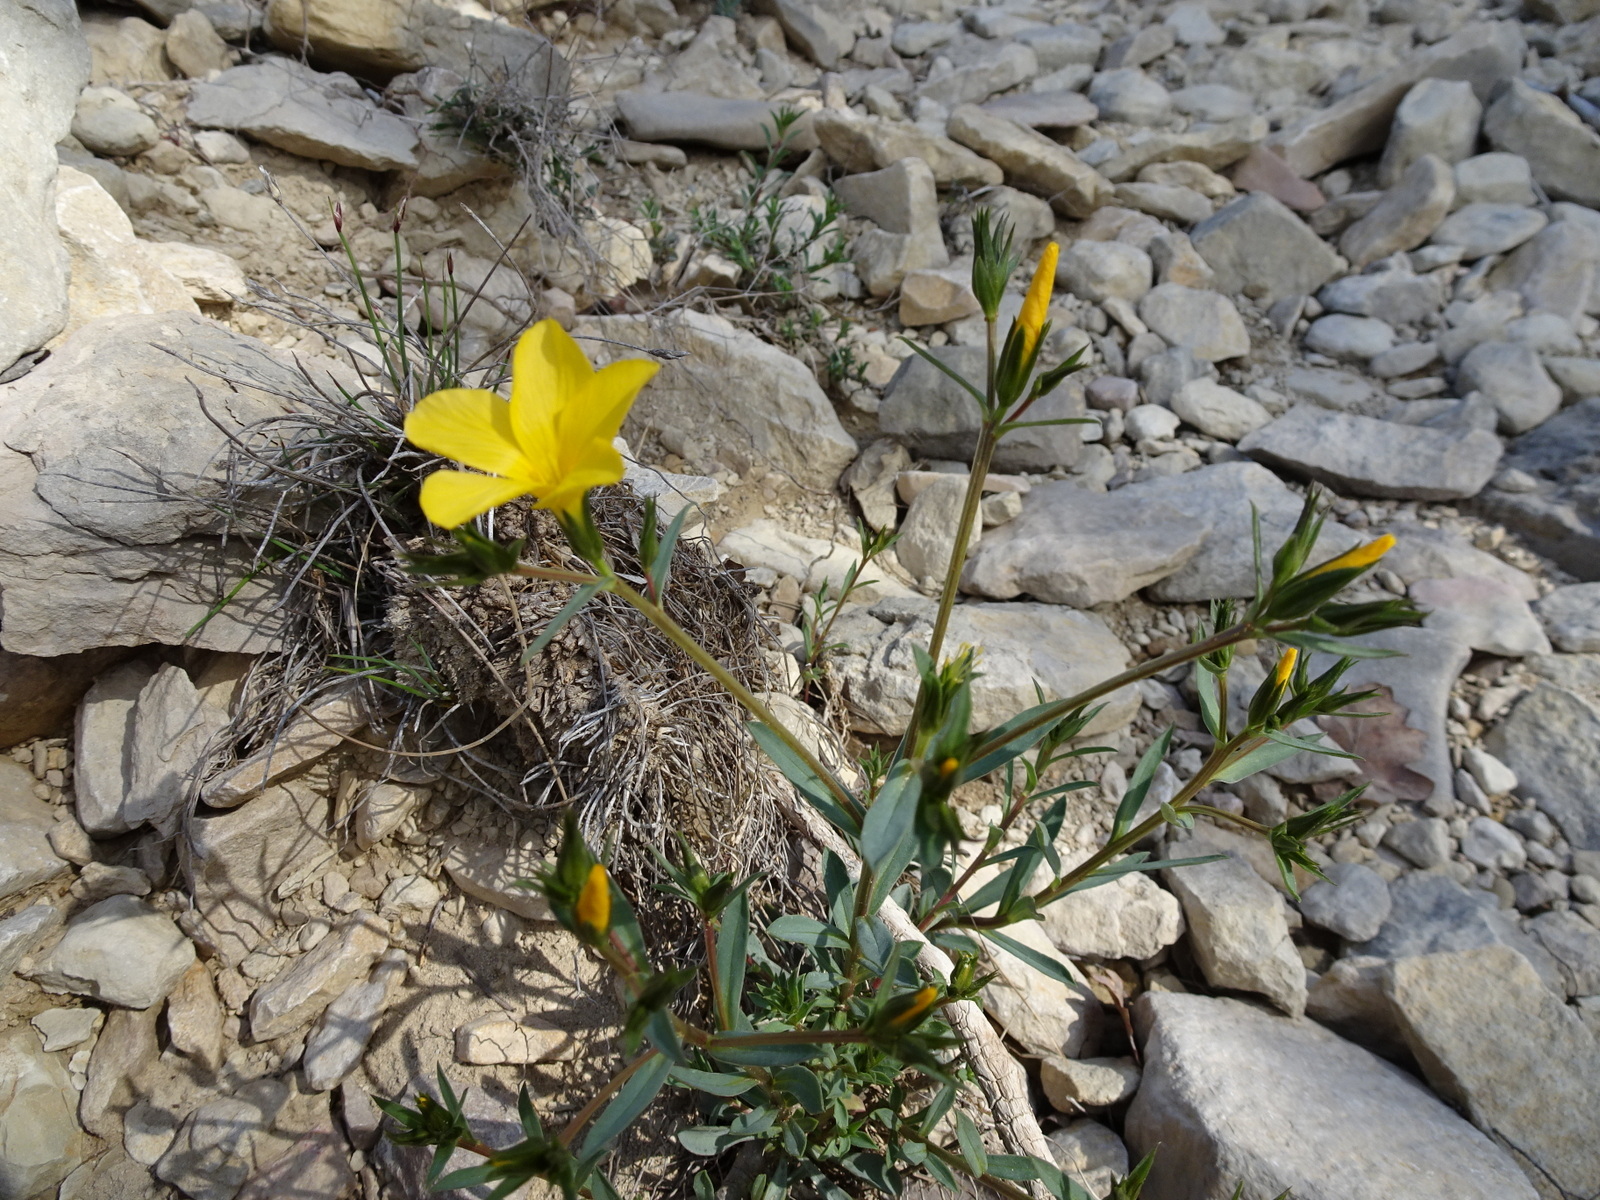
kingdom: Plantae
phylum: Tracheophyta
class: Magnoliopsida
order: Malpighiales
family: Linaceae
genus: Linum
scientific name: Linum campanulatum
